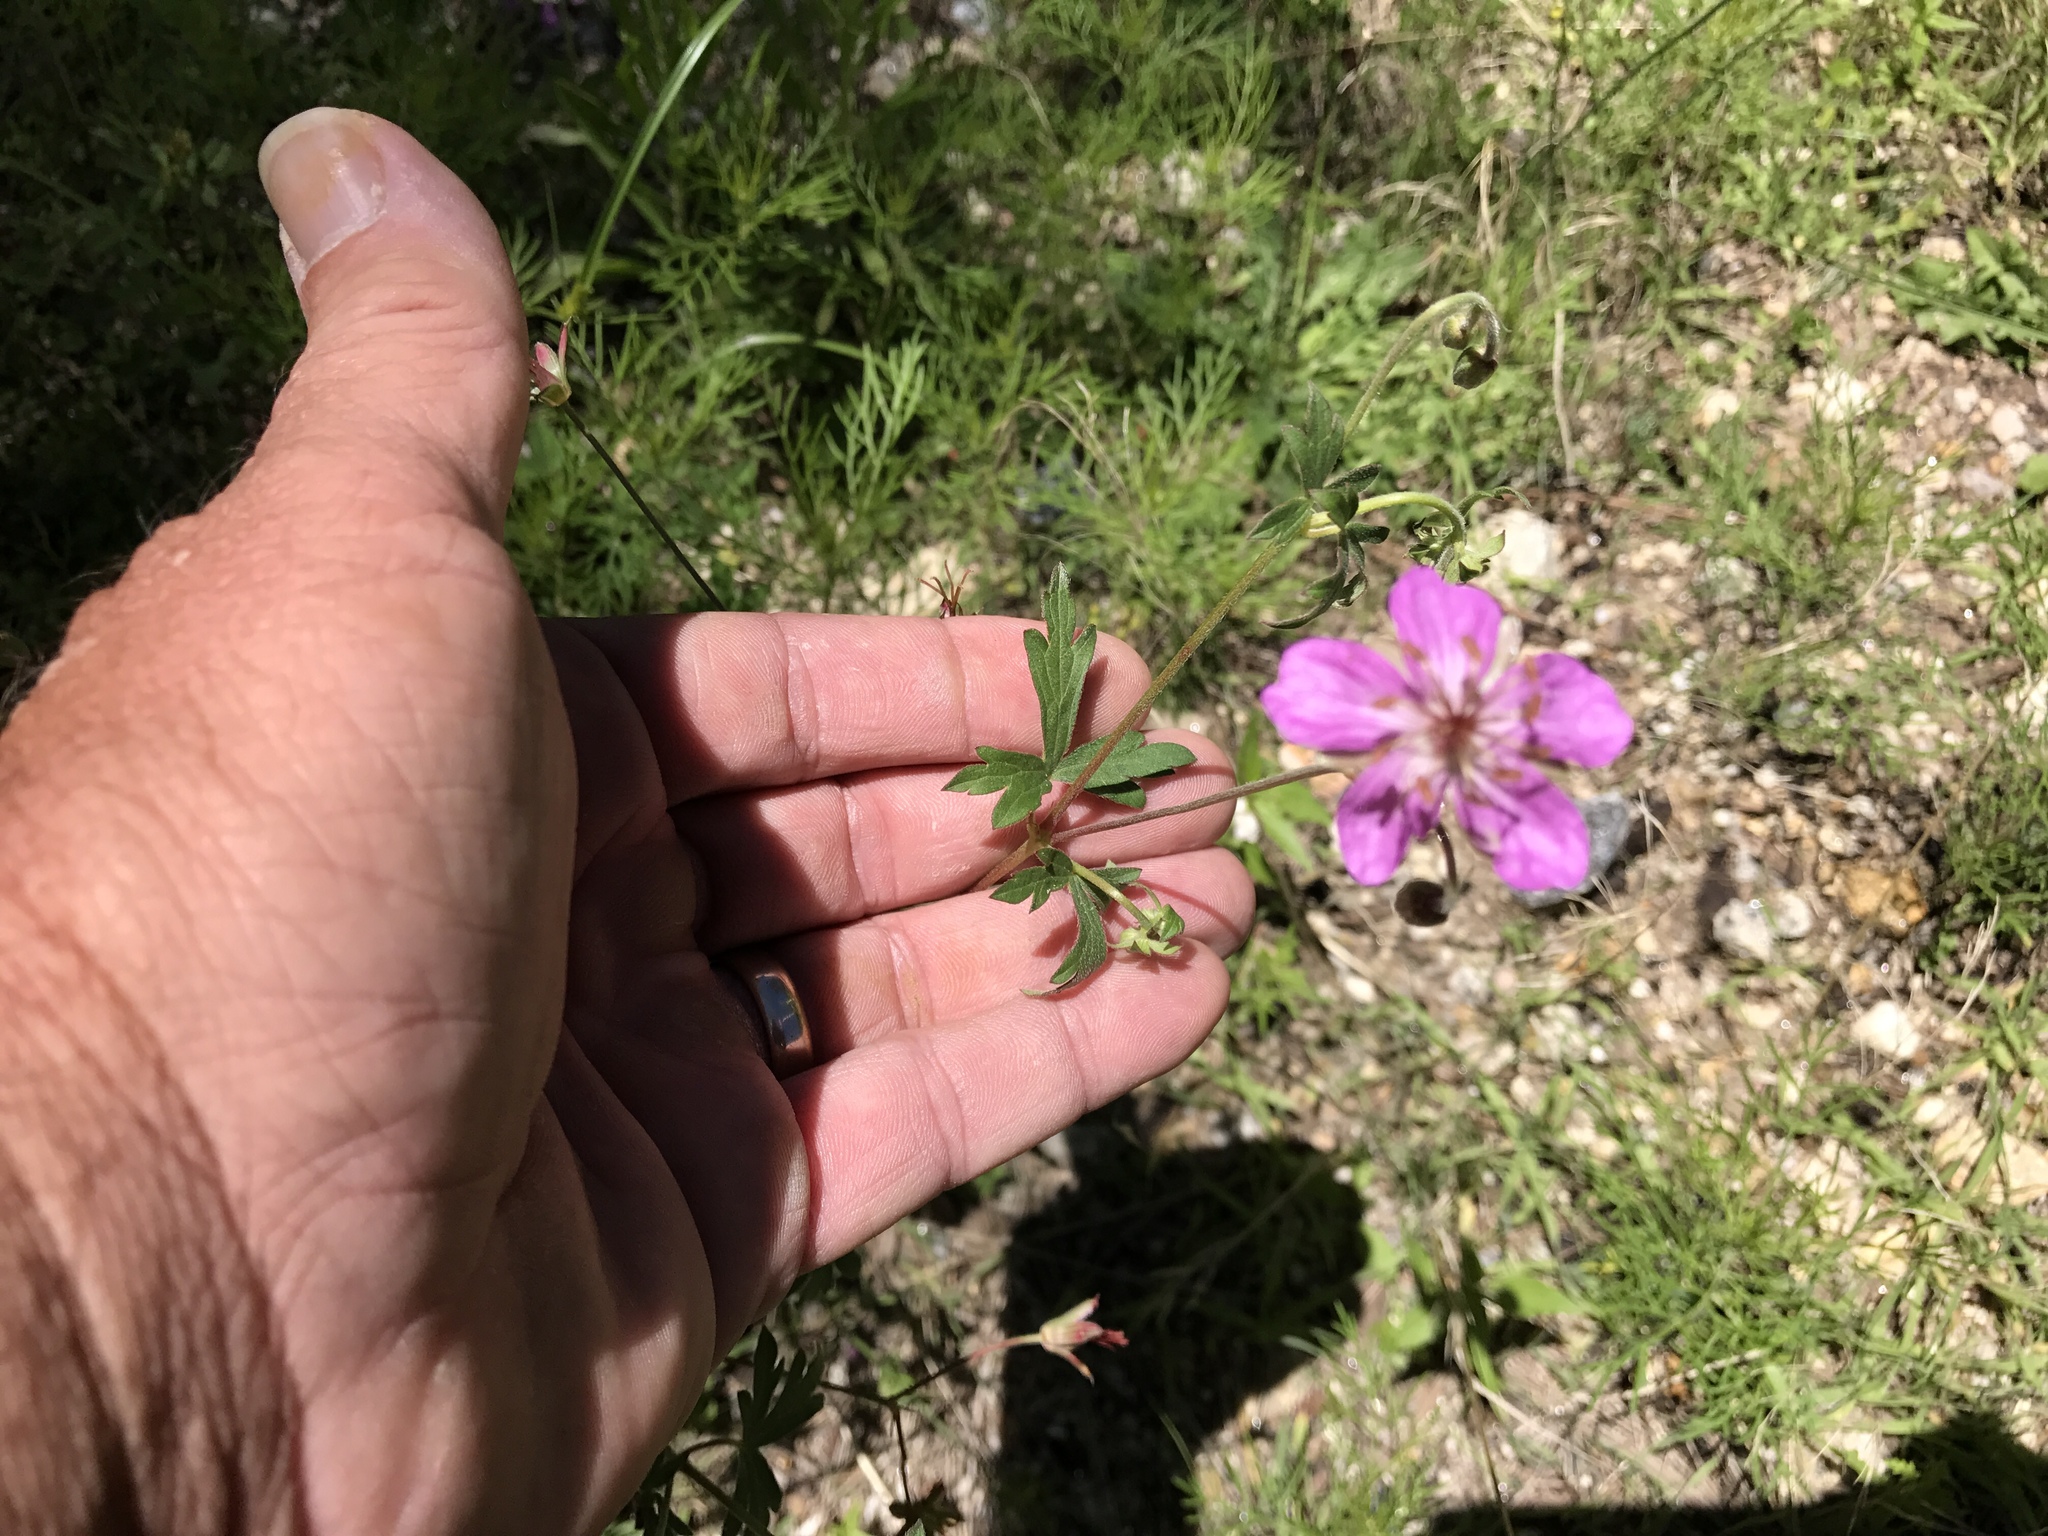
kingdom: Plantae
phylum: Tracheophyta
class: Magnoliopsida
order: Geraniales
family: Geraniaceae
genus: Geranium
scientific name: Geranium caespitosum
